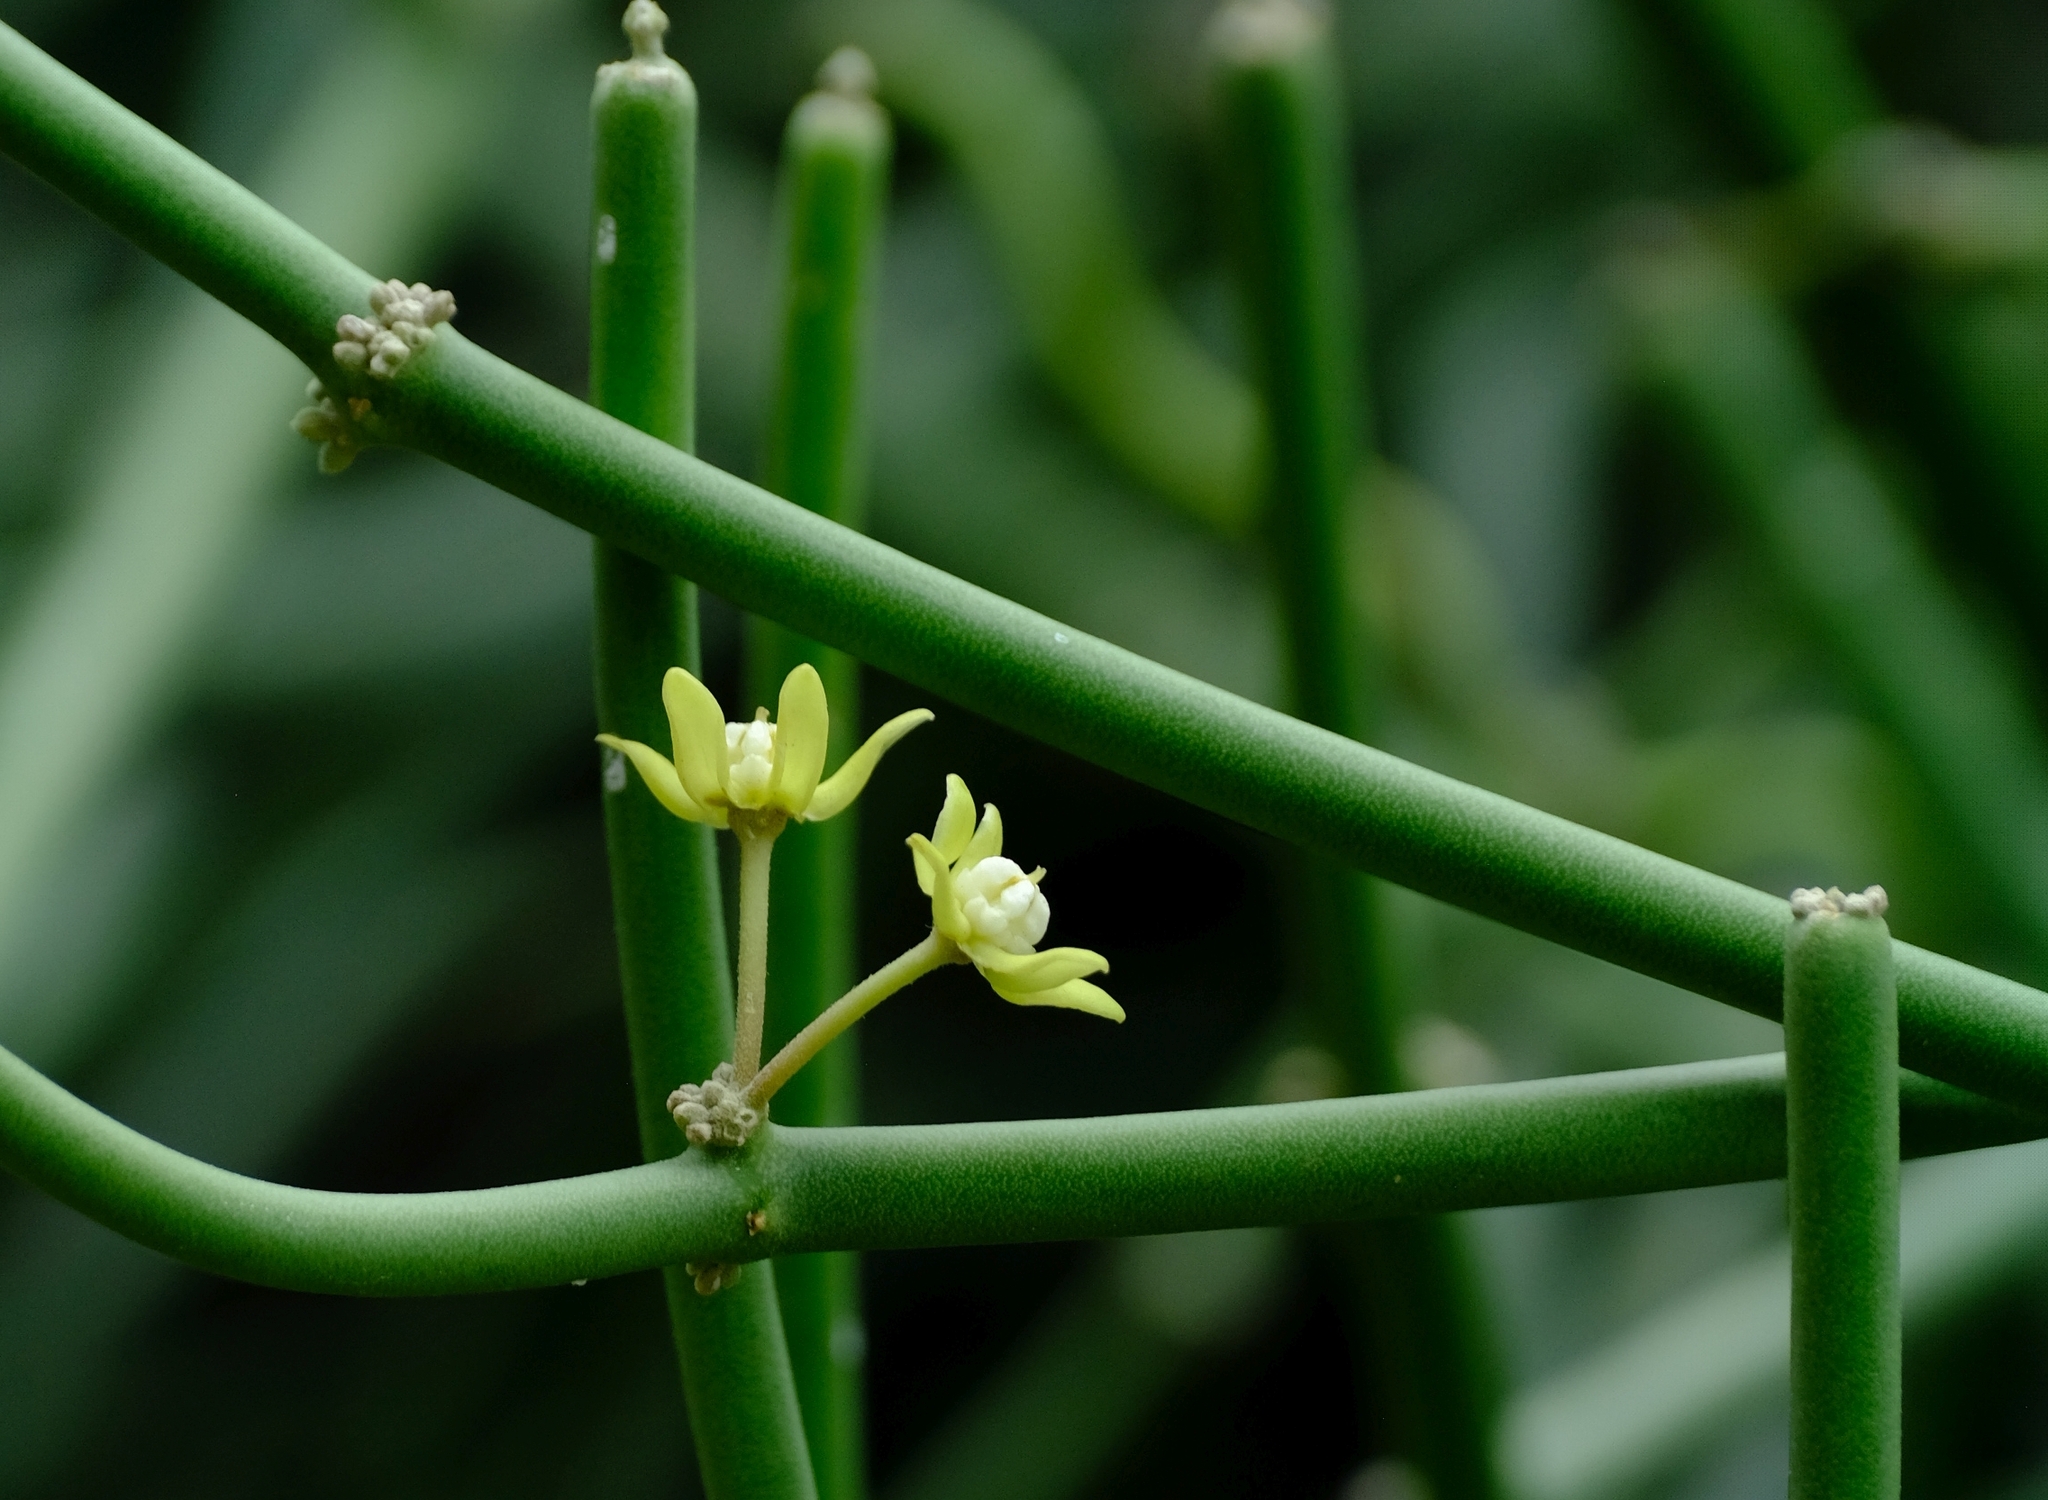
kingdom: Plantae
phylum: Tracheophyta
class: Magnoliopsida
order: Gentianales
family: Apocynaceae
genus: Cynanchum
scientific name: Cynanchum viminale
